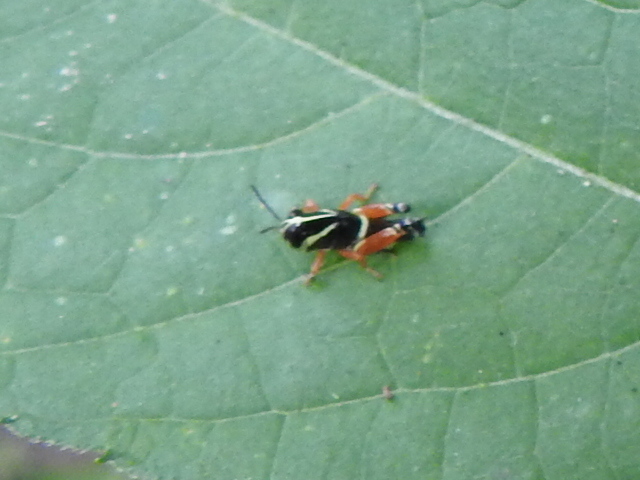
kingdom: Animalia
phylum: Arthropoda
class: Insecta
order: Orthoptera
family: Acrididae
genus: Aidemona
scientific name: Aidemona azteca
